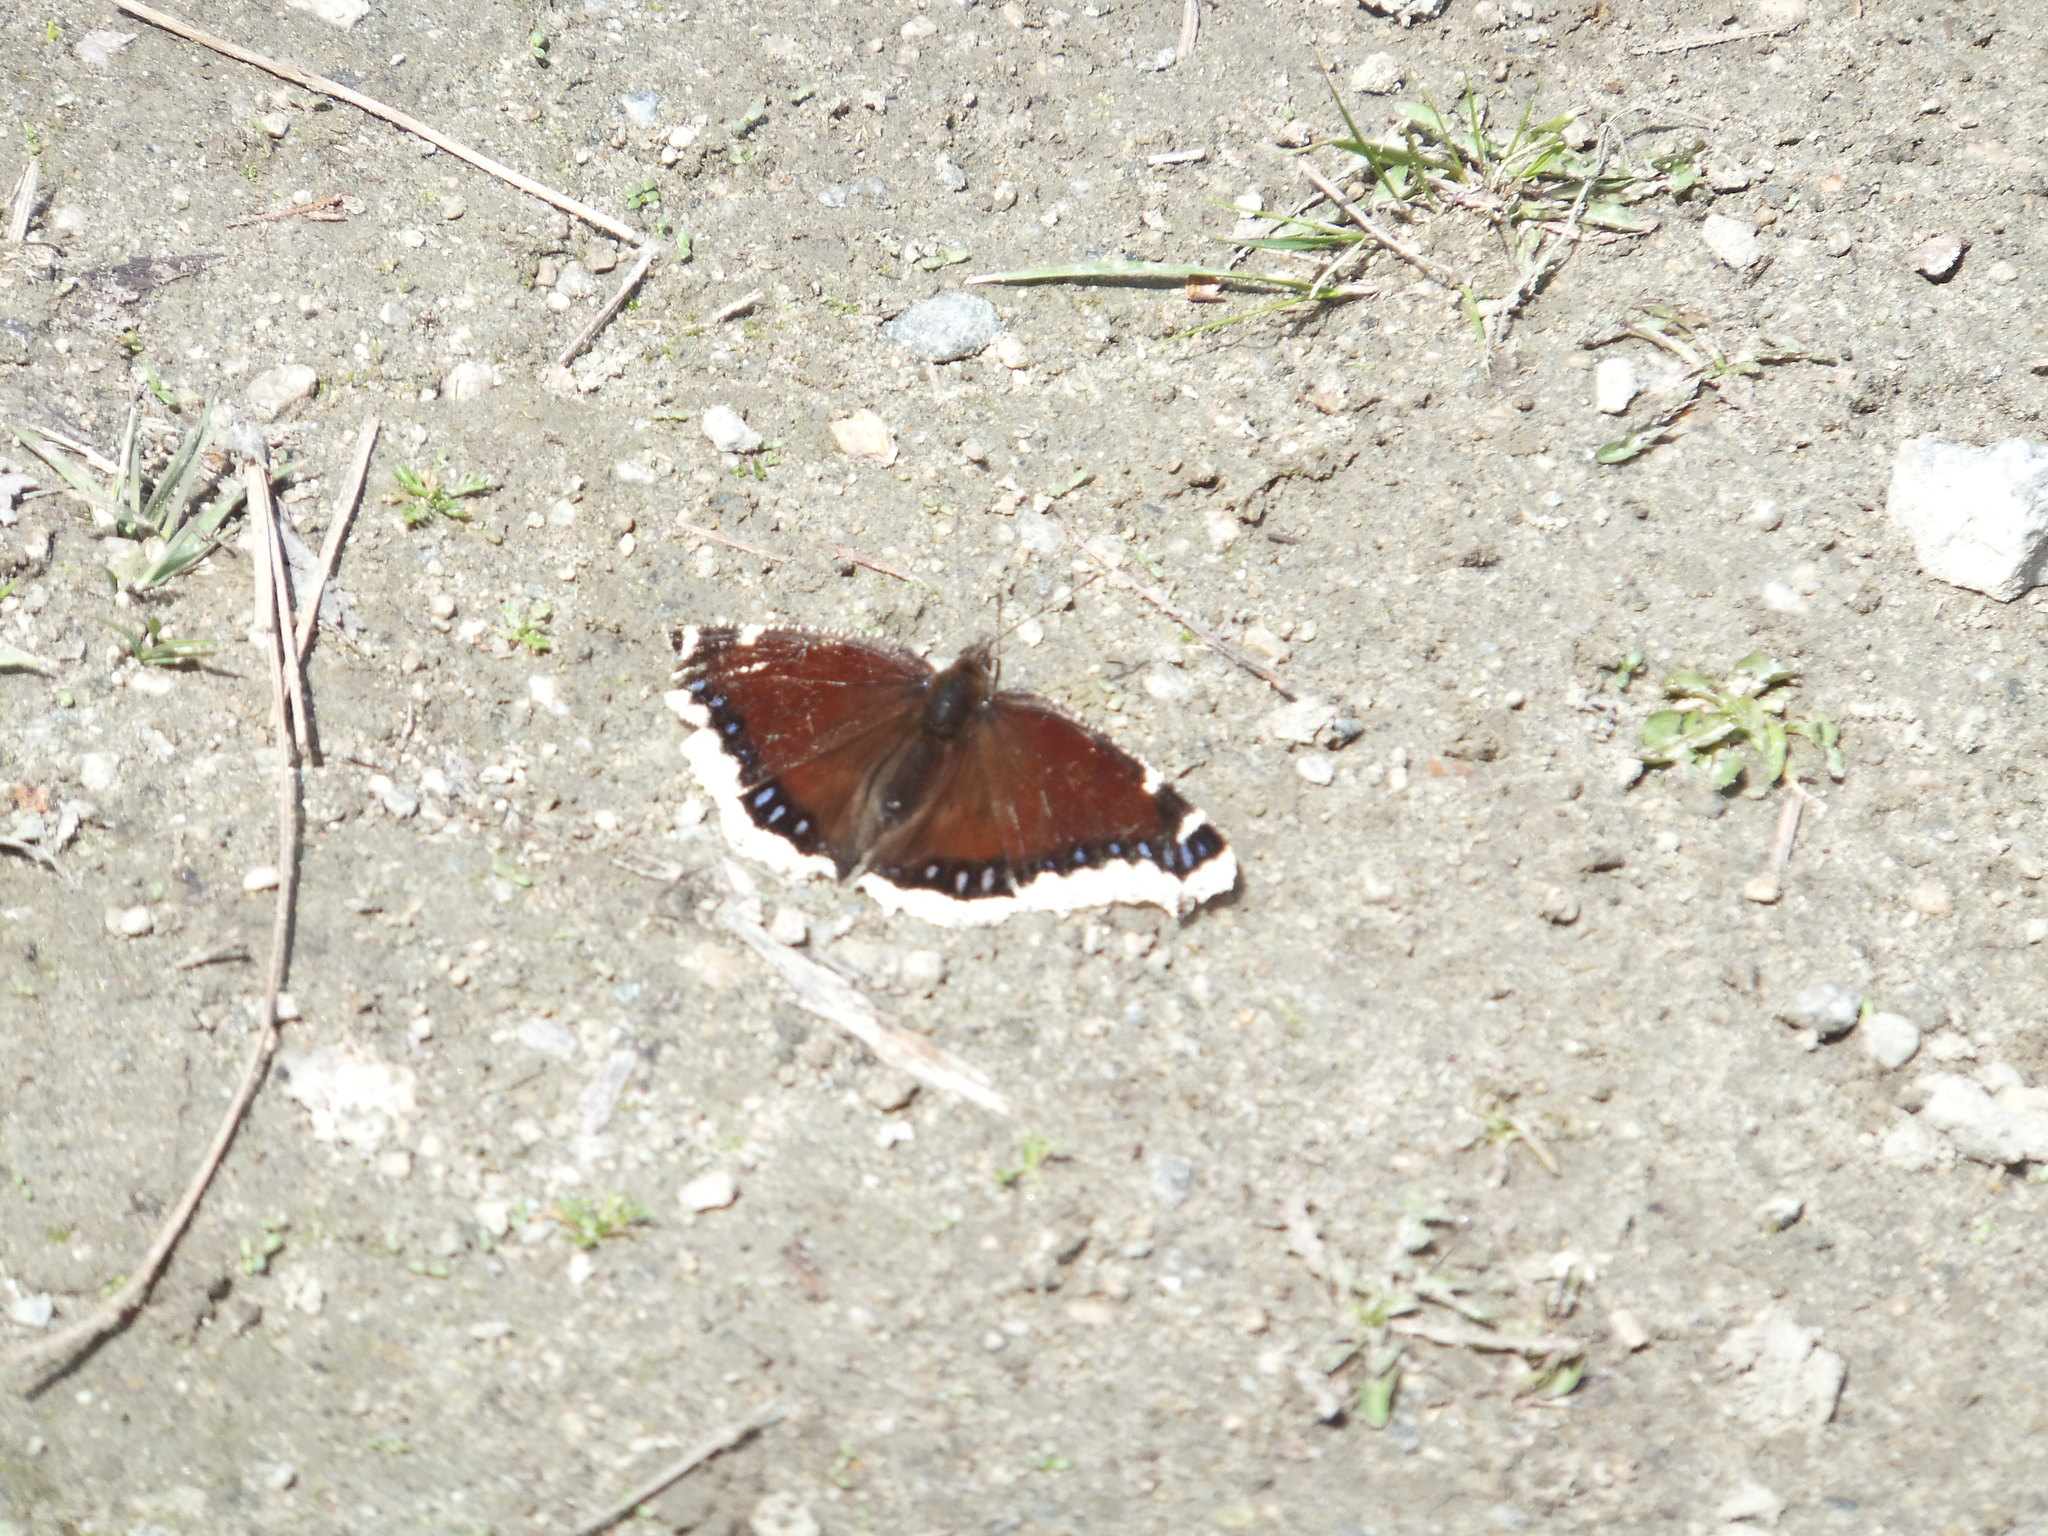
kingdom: Animalia
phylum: Arthropoda
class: Insecta
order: Lepidoptera
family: Nymphalidae
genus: Nymphalis
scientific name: Nymphalis antiopa
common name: Camberwell beauty
